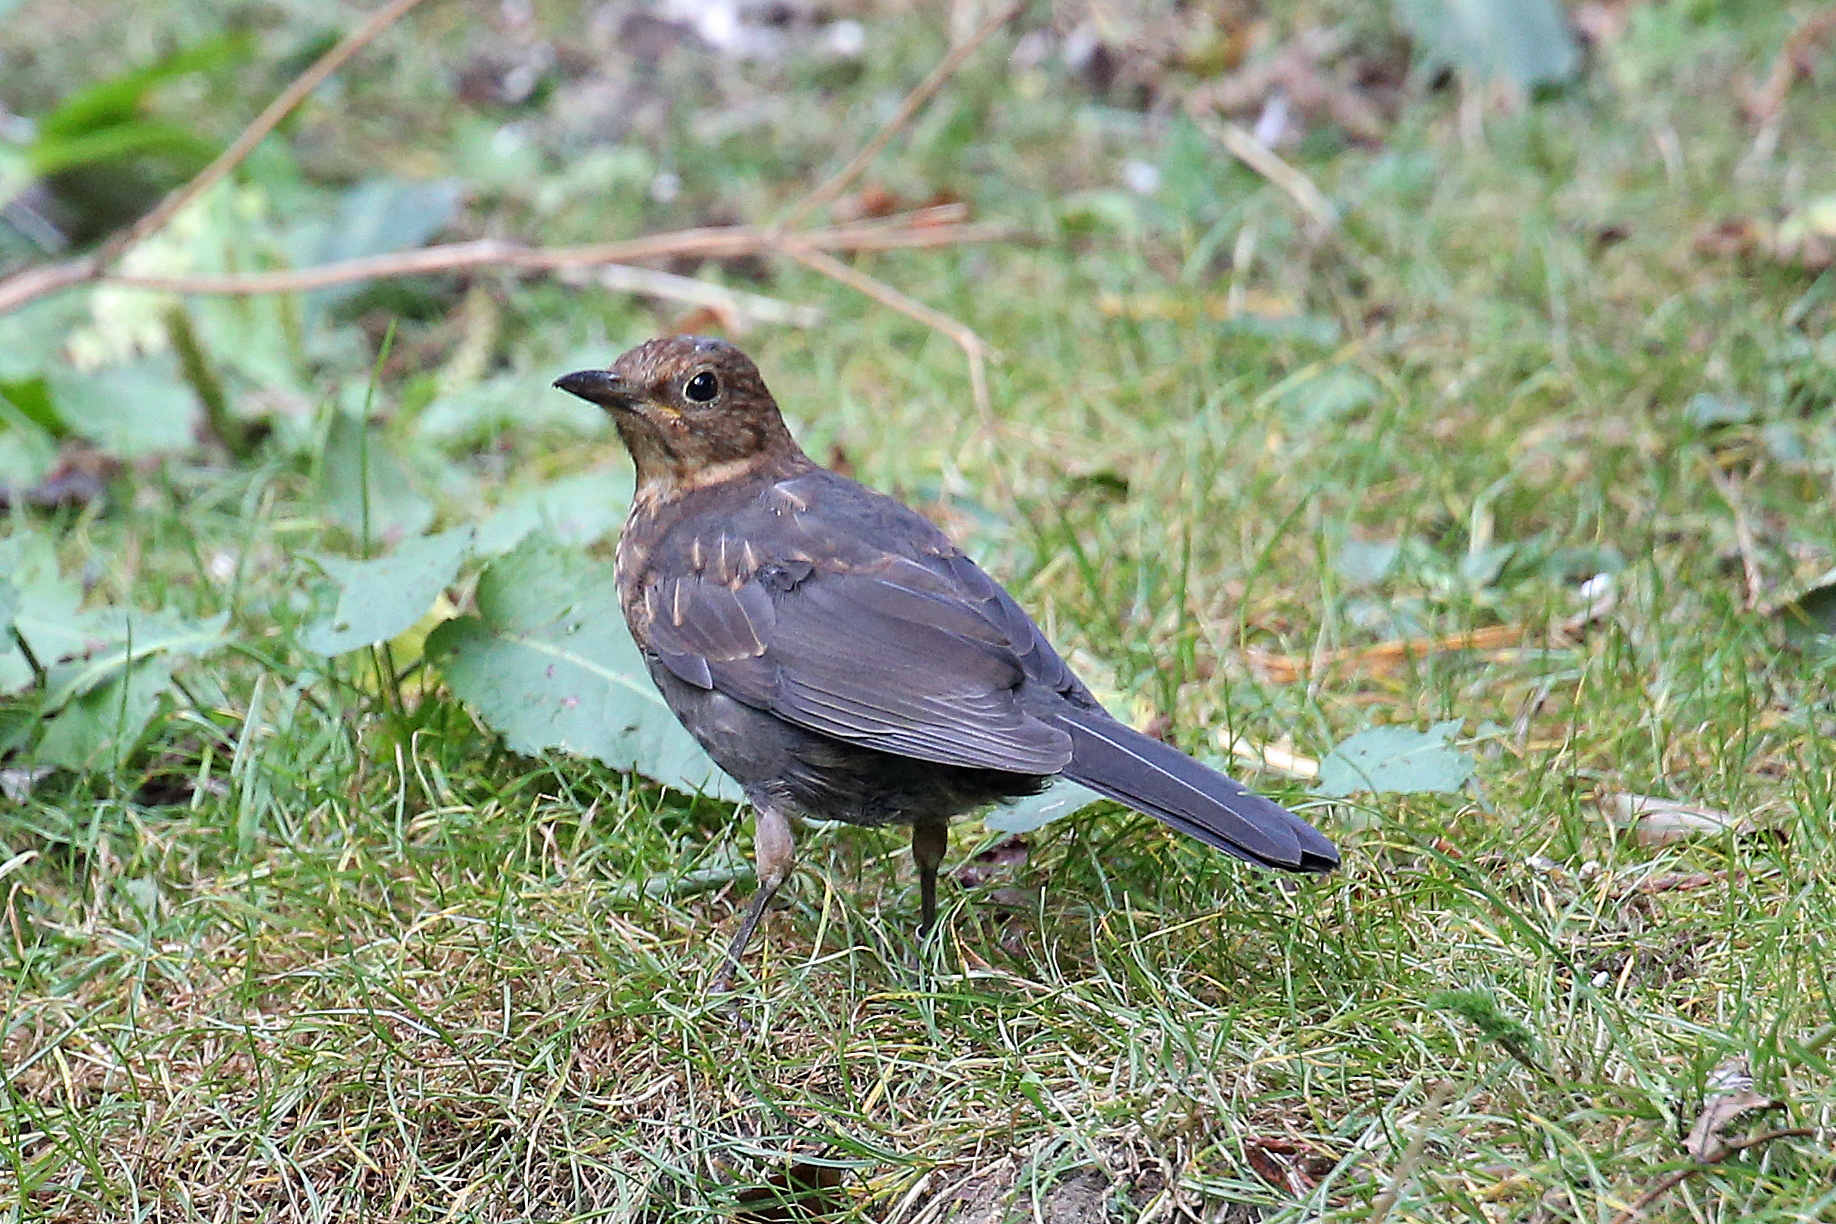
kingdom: Animalia
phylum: Chordata
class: Aves
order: Passeriformes
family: Turdidae
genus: Turdus
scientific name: Turdus merula
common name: Common blackbird
